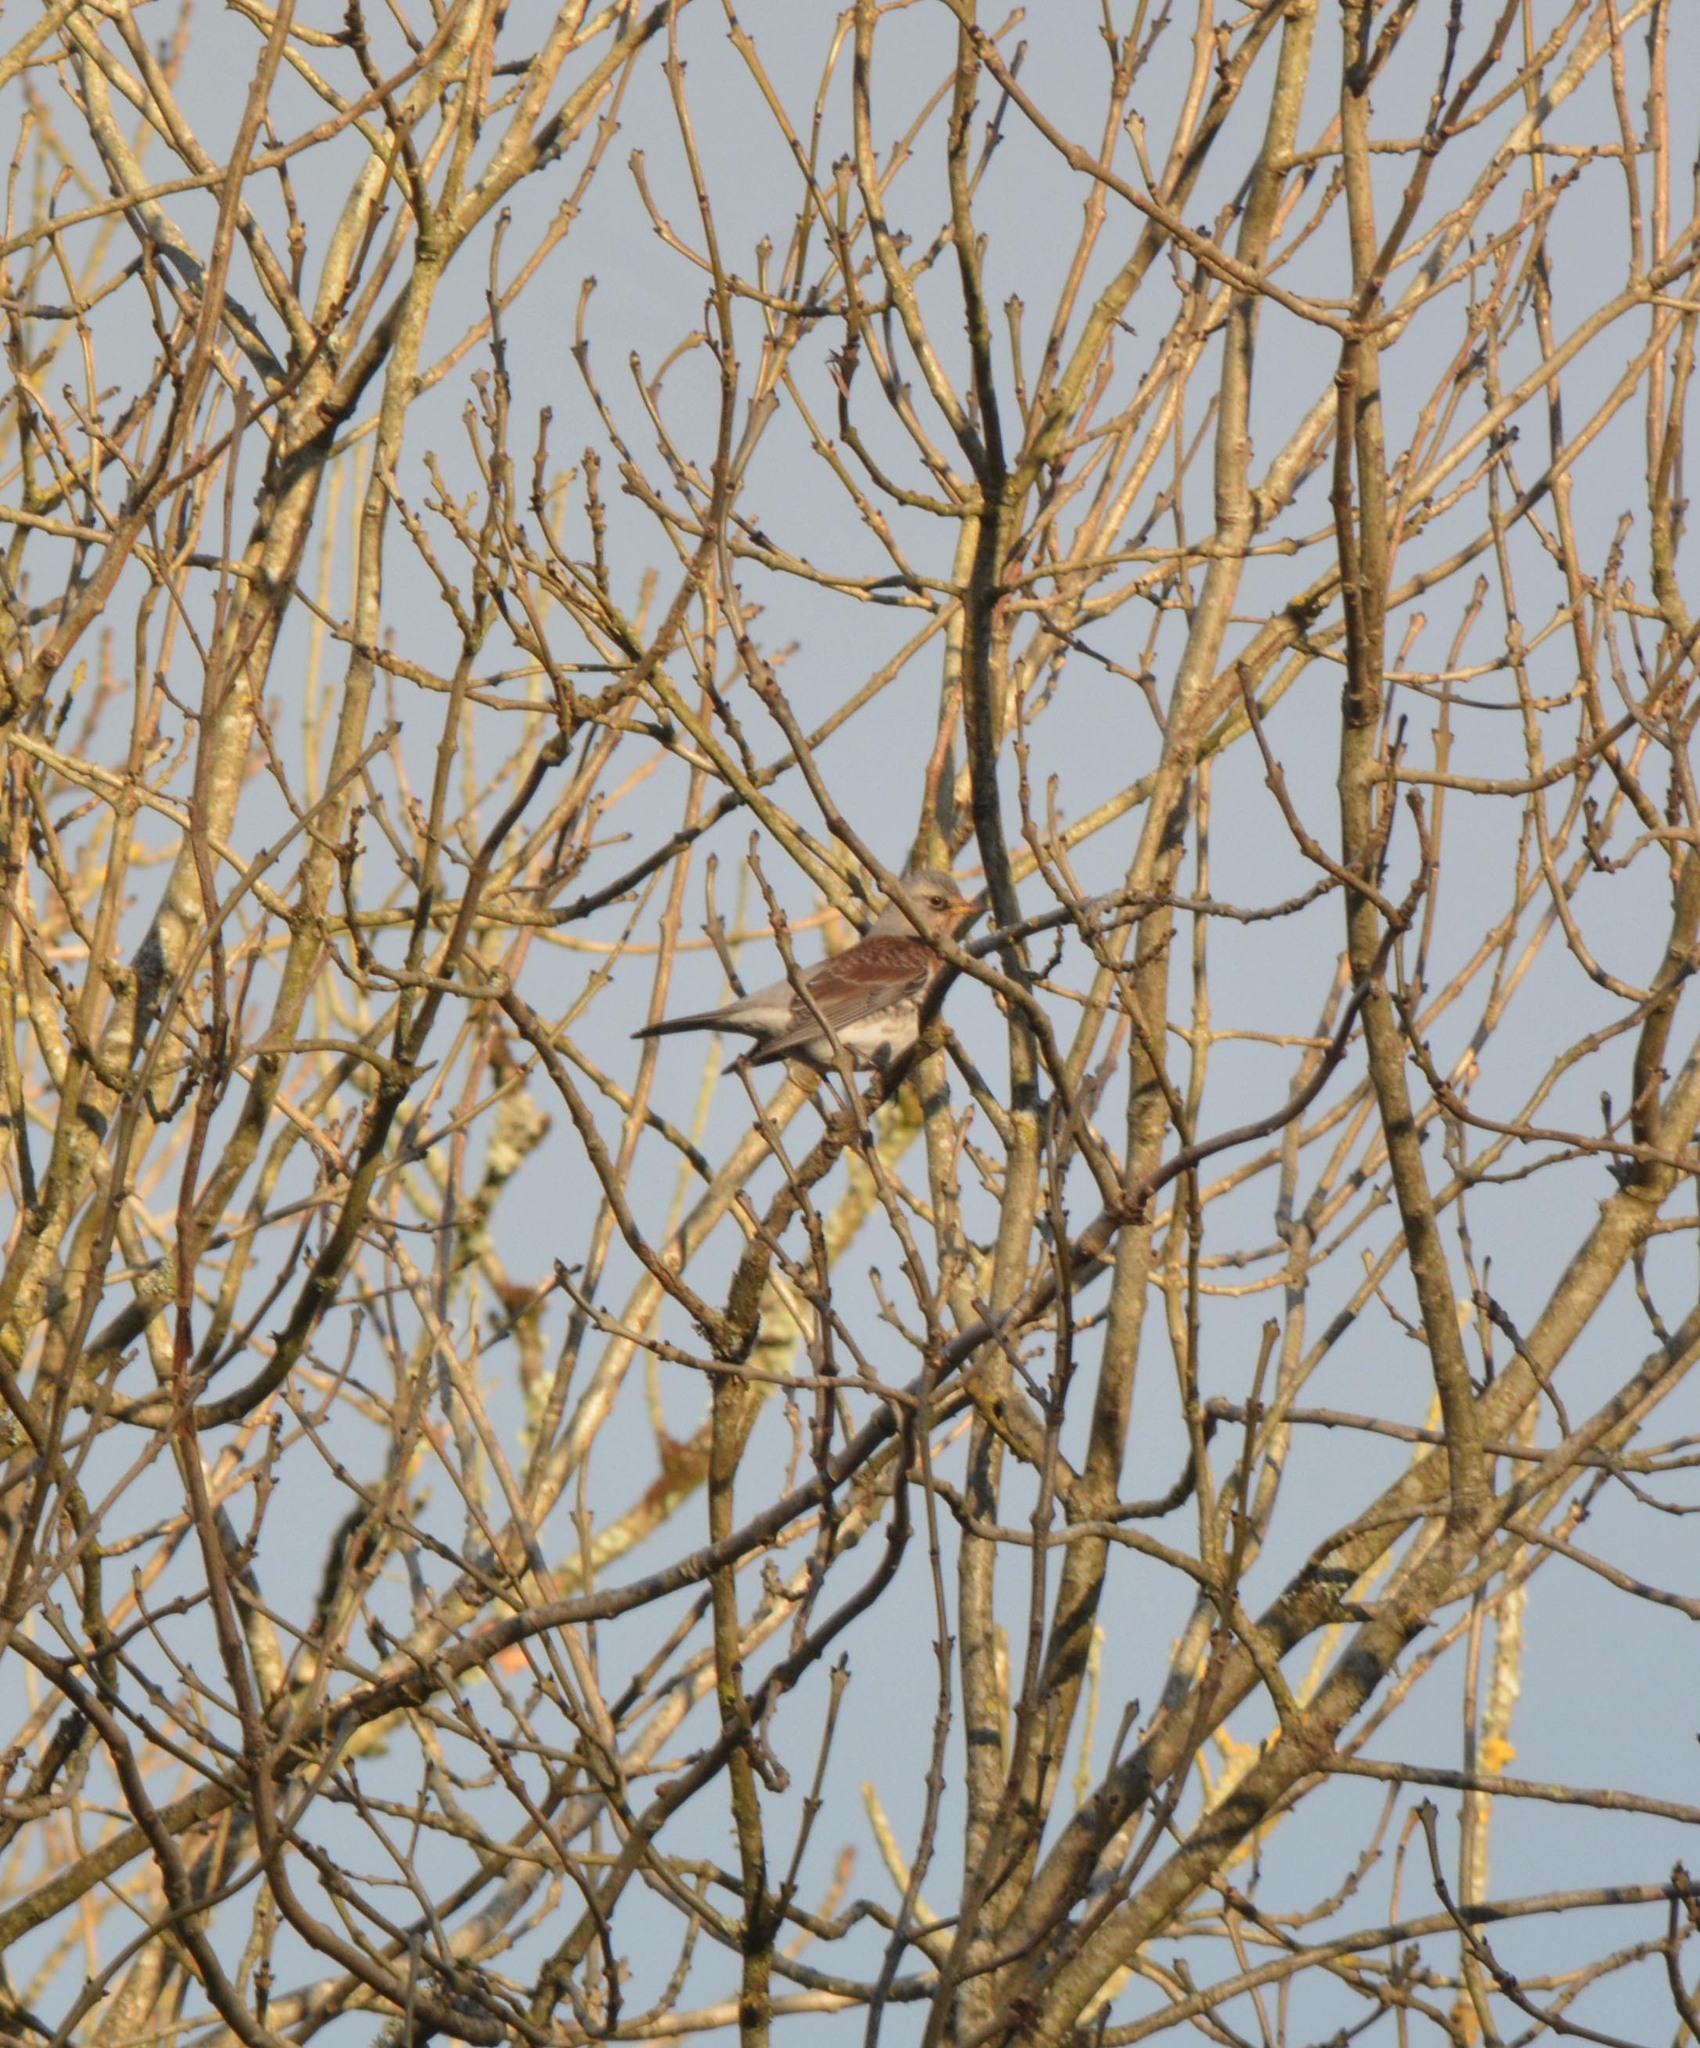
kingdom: Animalia
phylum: Chordata
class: Aves
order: Passeriformes
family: Turdidae
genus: Turdus
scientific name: Turdus pilaris
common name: Fieldfare
